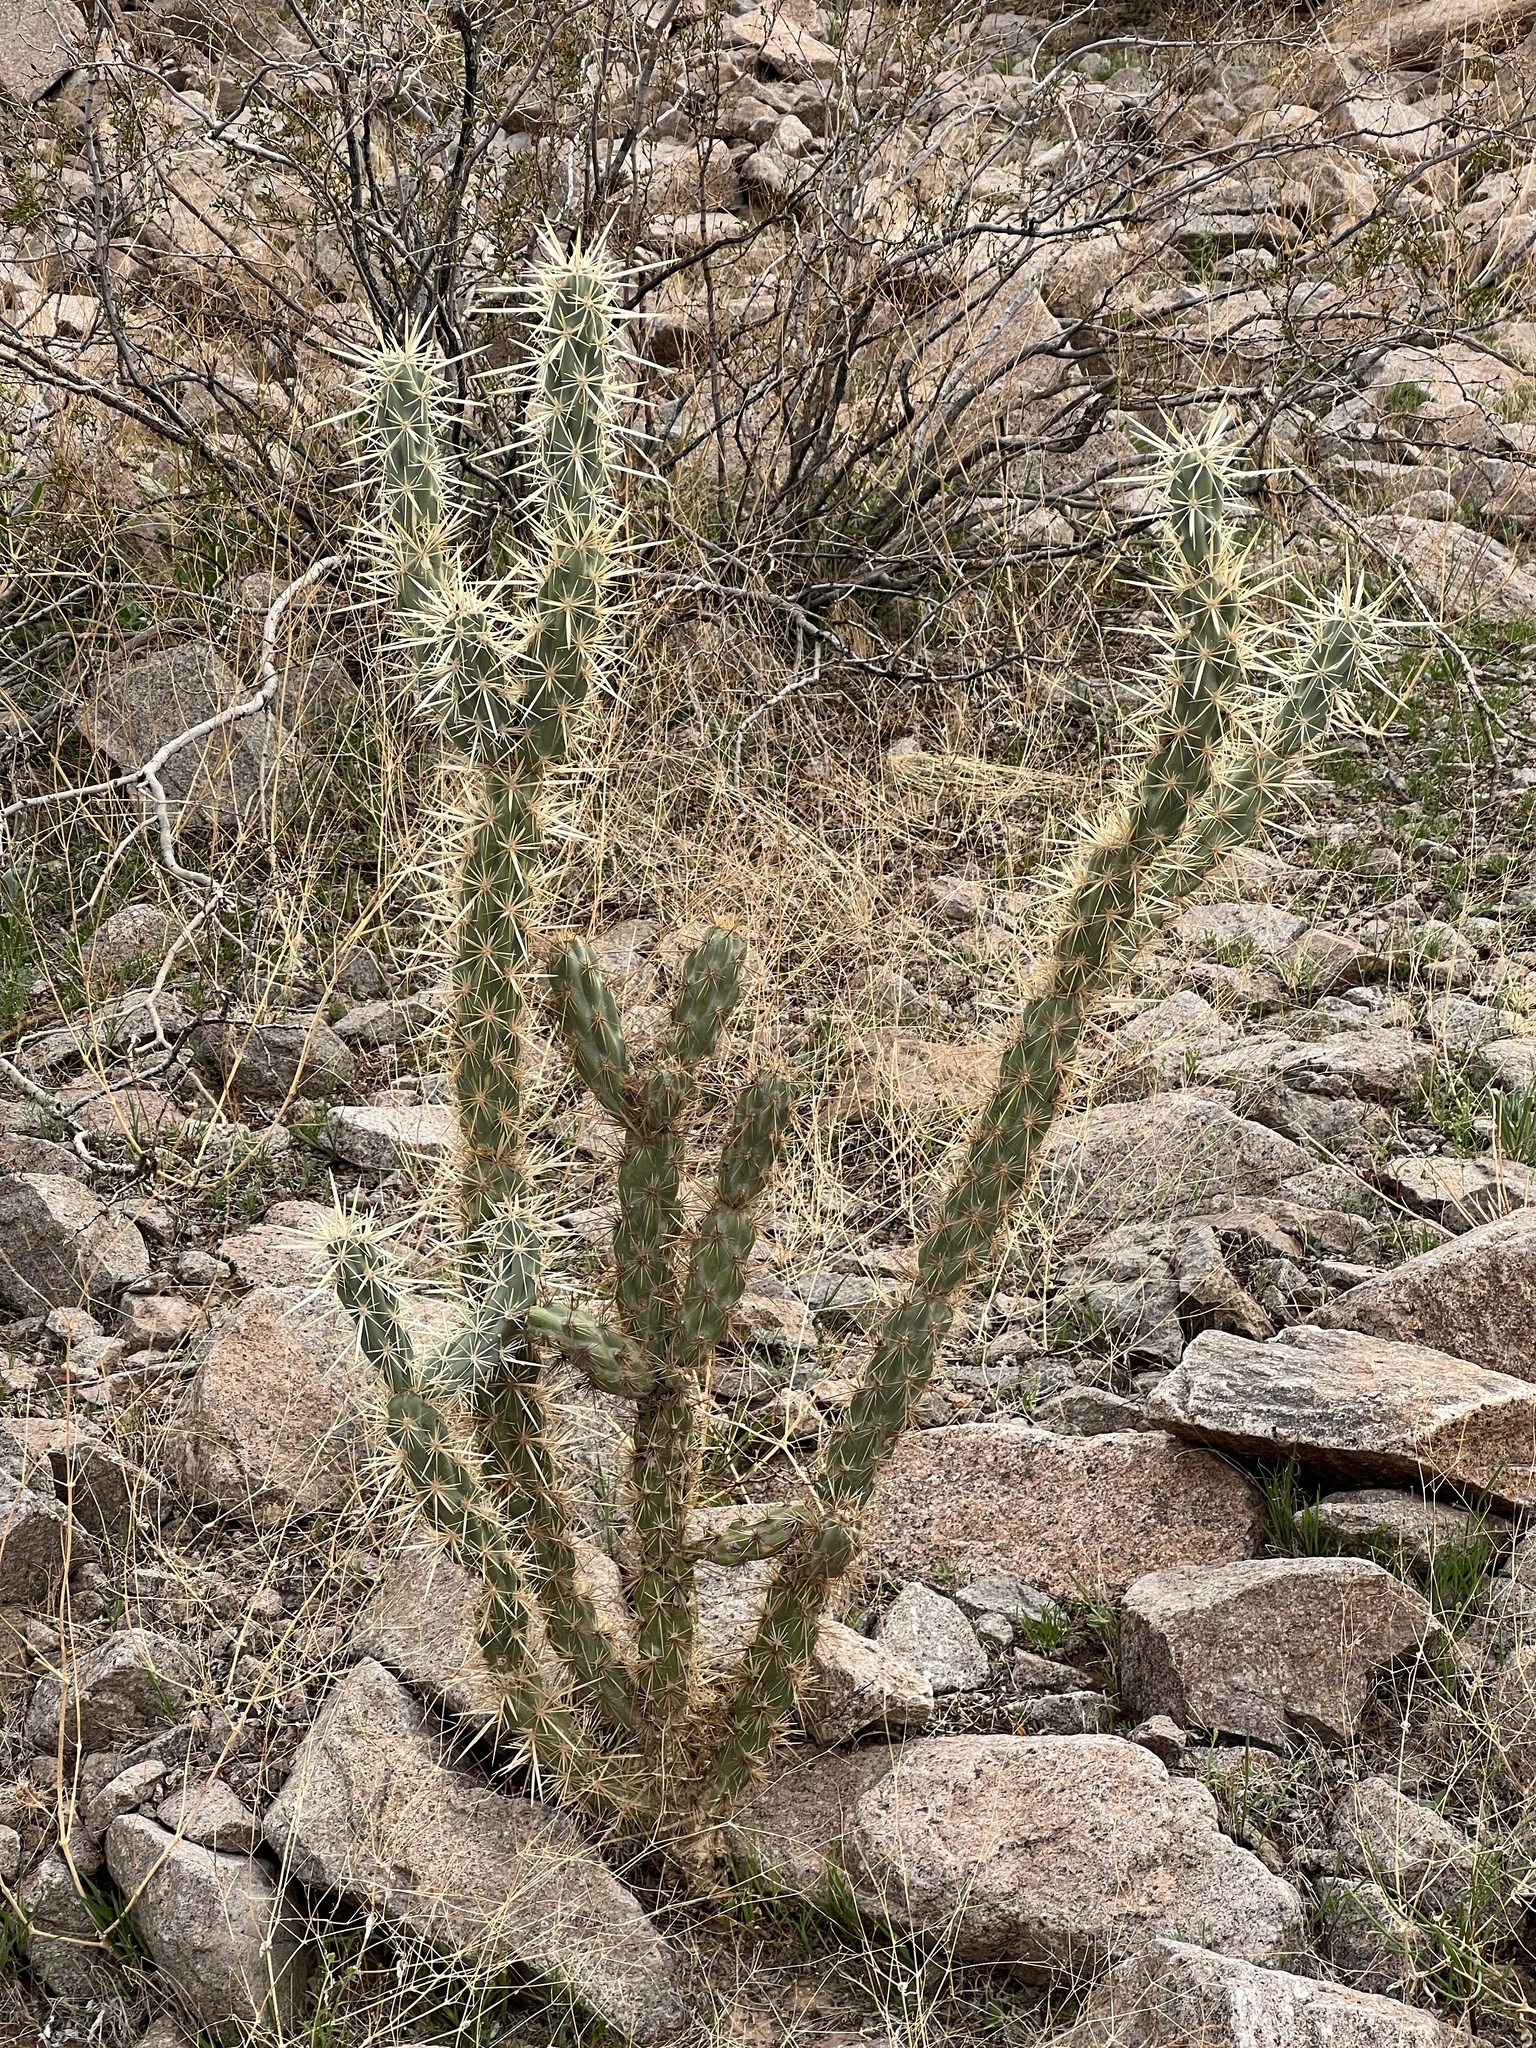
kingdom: Plantae
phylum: Tracheophyta
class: Magnoliopsida
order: Caryophyllales
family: Cactaceae
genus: Cylindropuntia
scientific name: Cylindropuntia acanthocarpa
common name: Buckhorn cholla
